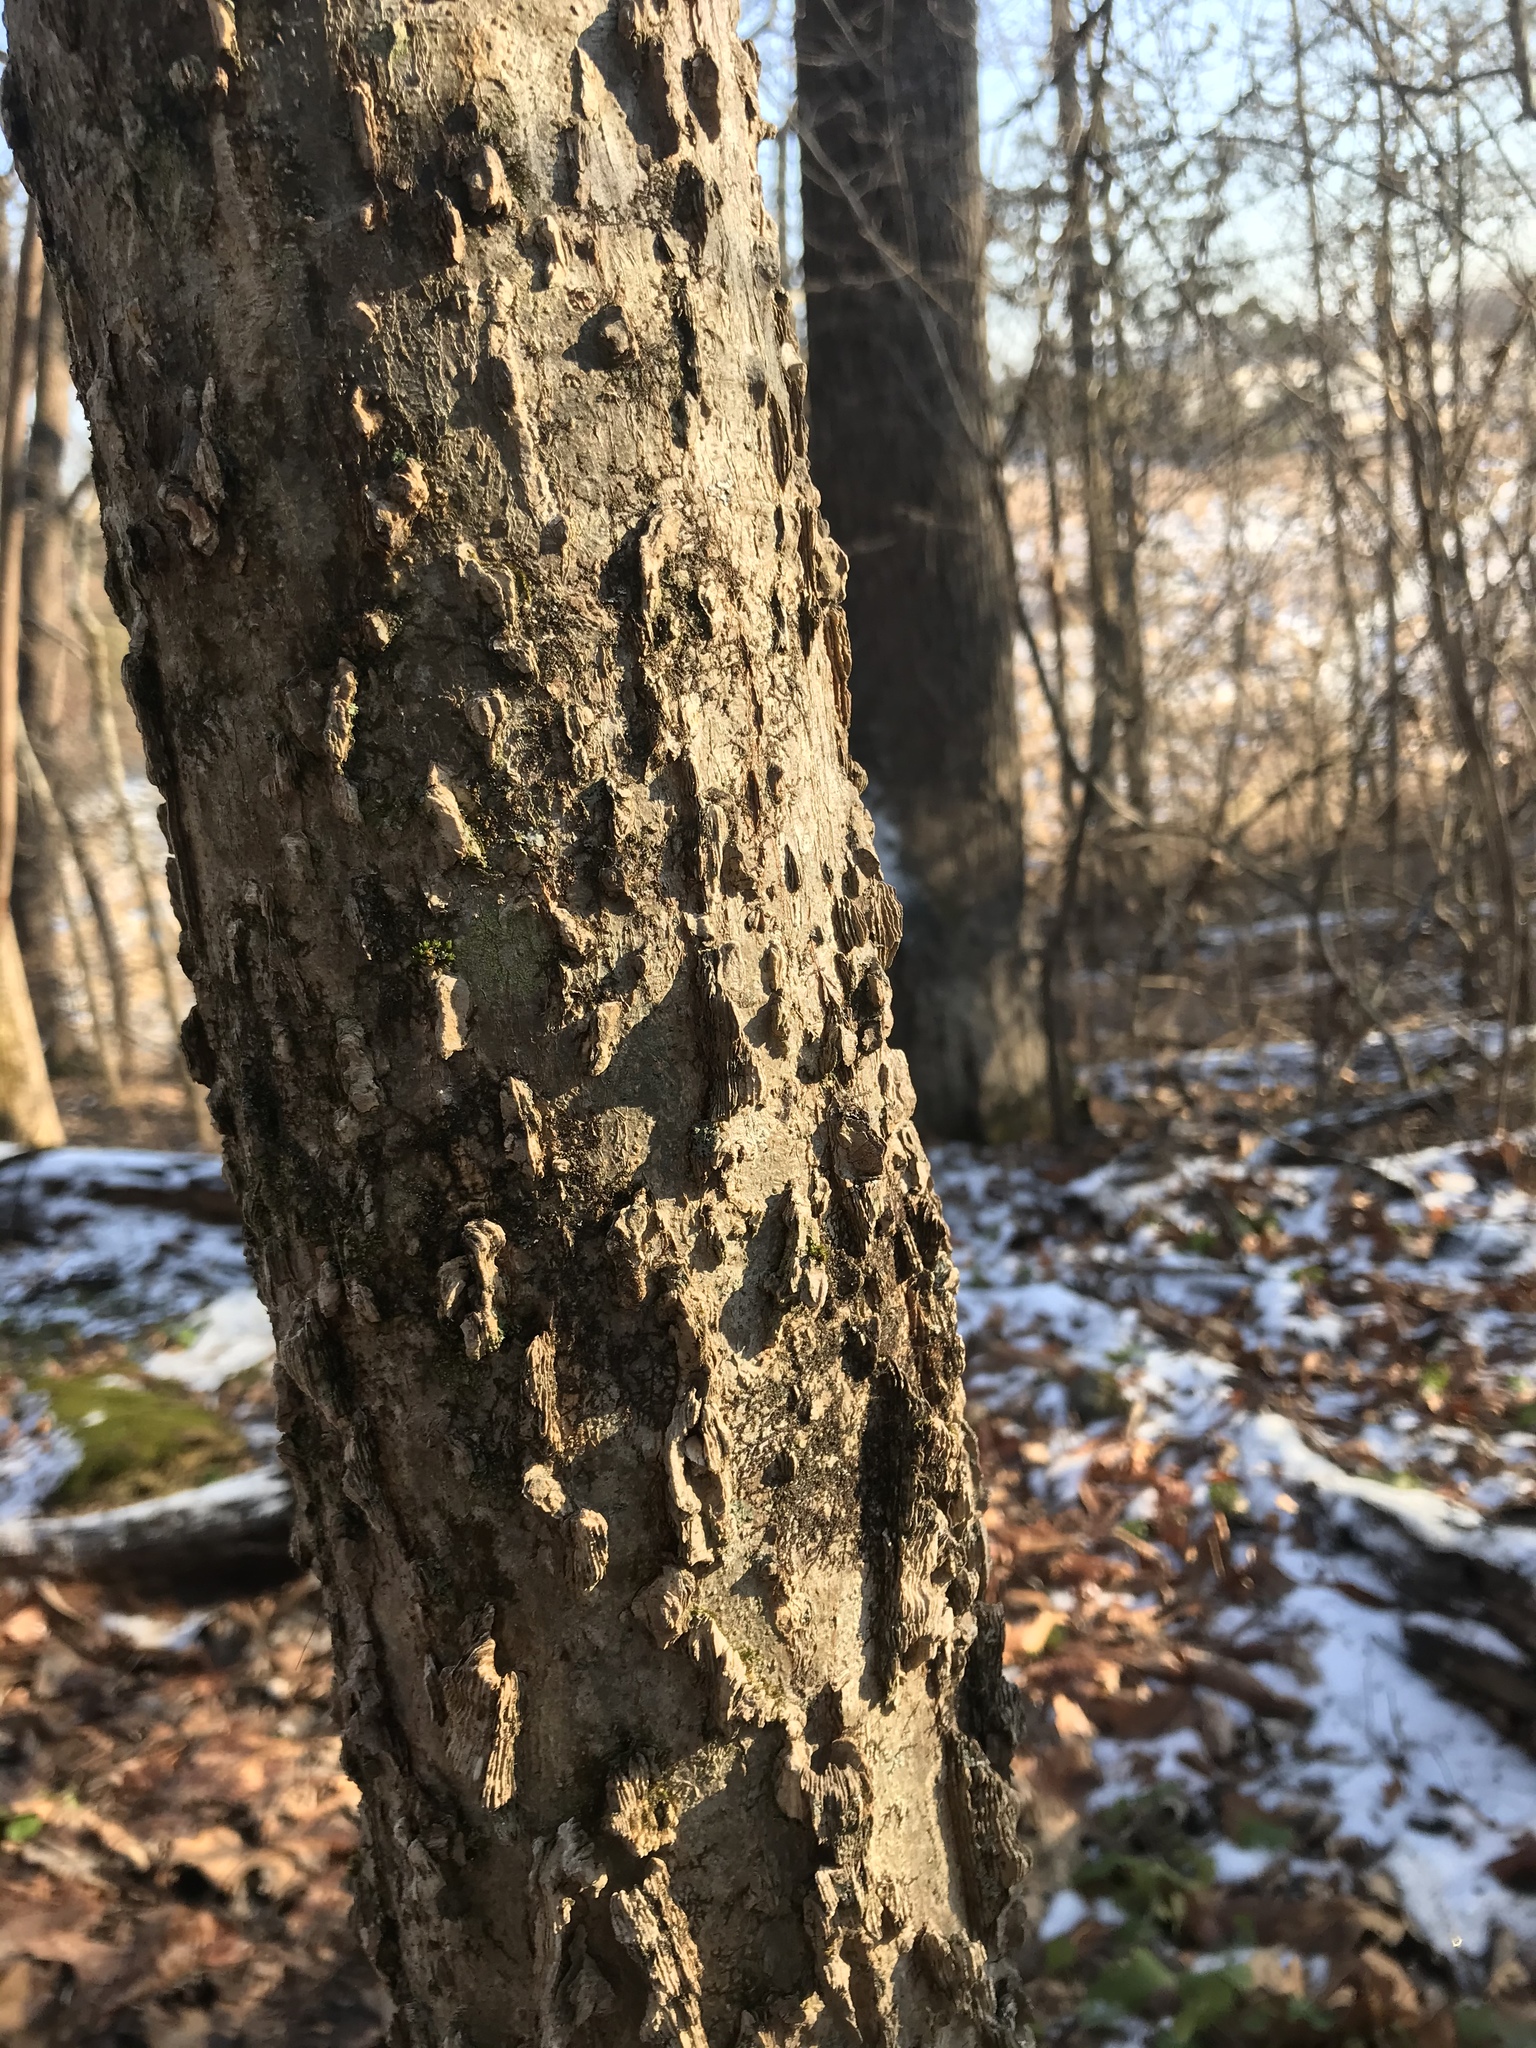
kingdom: Plantae
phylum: Tracheophyta
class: Magnoliopsida
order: Rosales
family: Cannabaceae
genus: Celtis
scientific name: Celtis occidentalis
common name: Common hackberry
